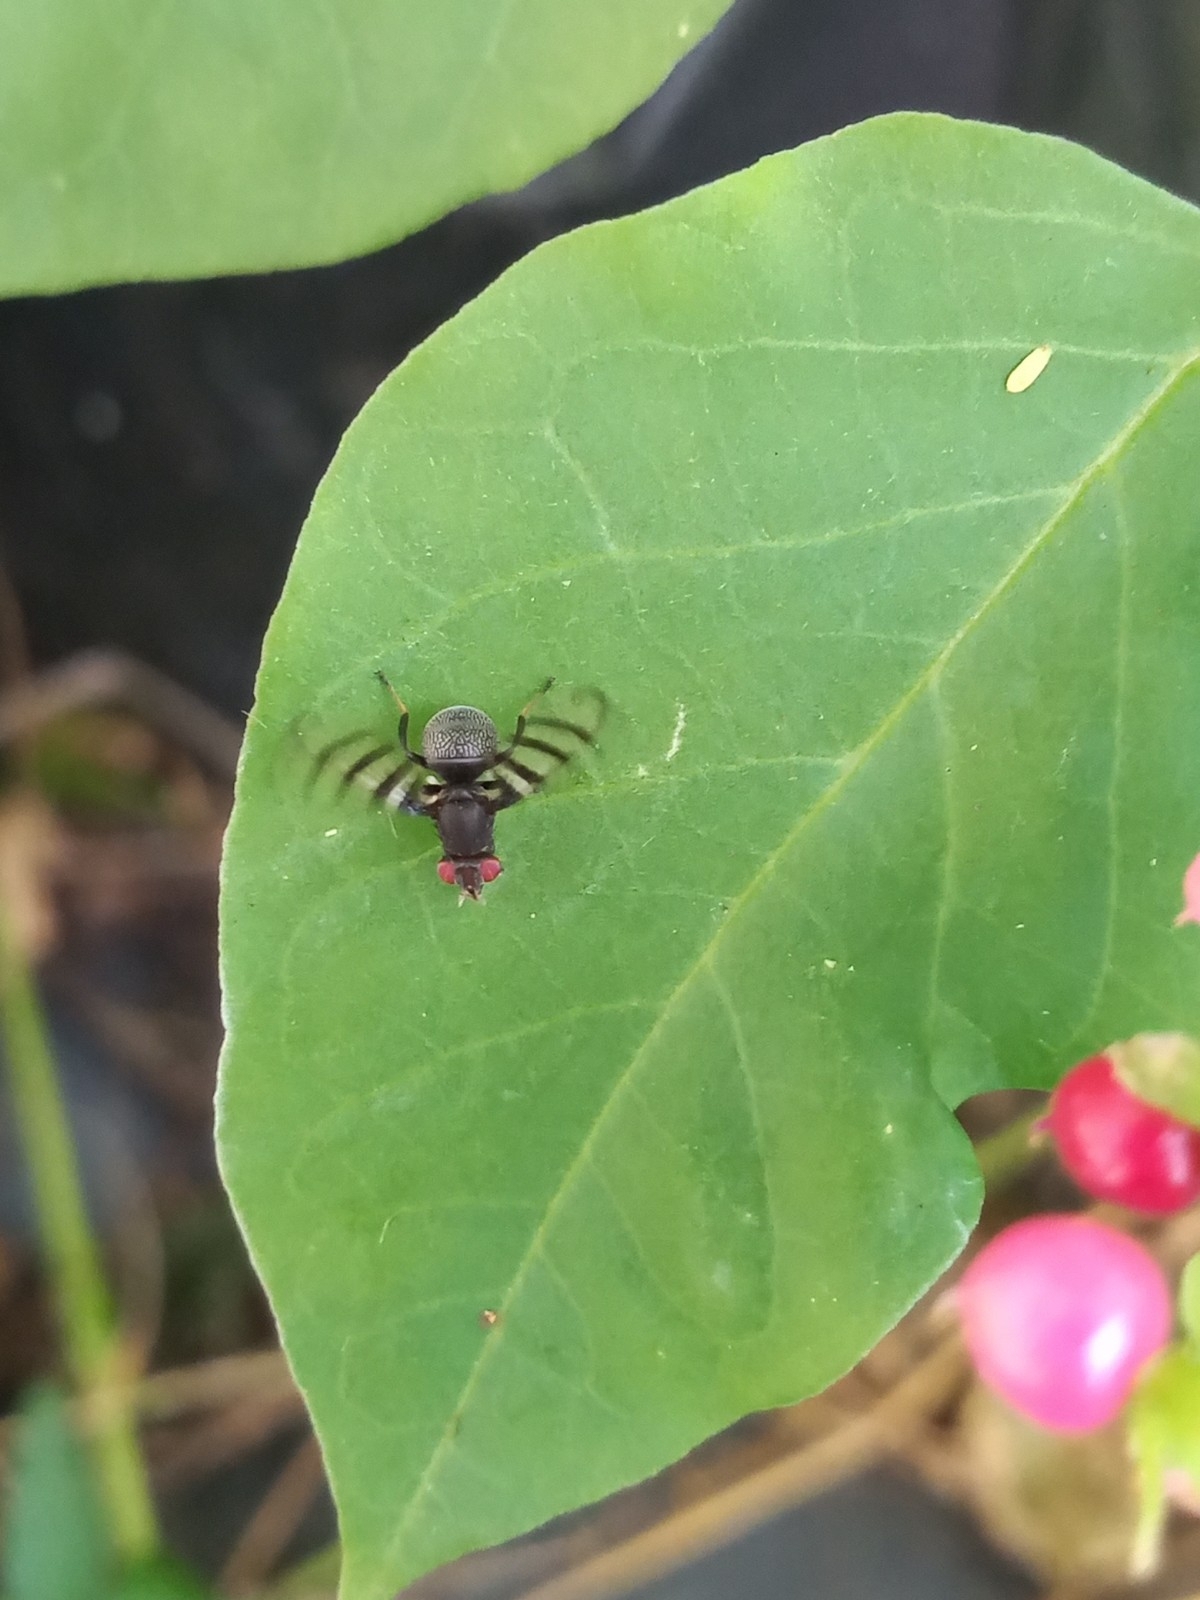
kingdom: Animalia
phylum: Arthropoda
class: Insecta
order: Diptera
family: Ulidiidae
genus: Pterotaenia
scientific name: Pterotaenia rivelloides
